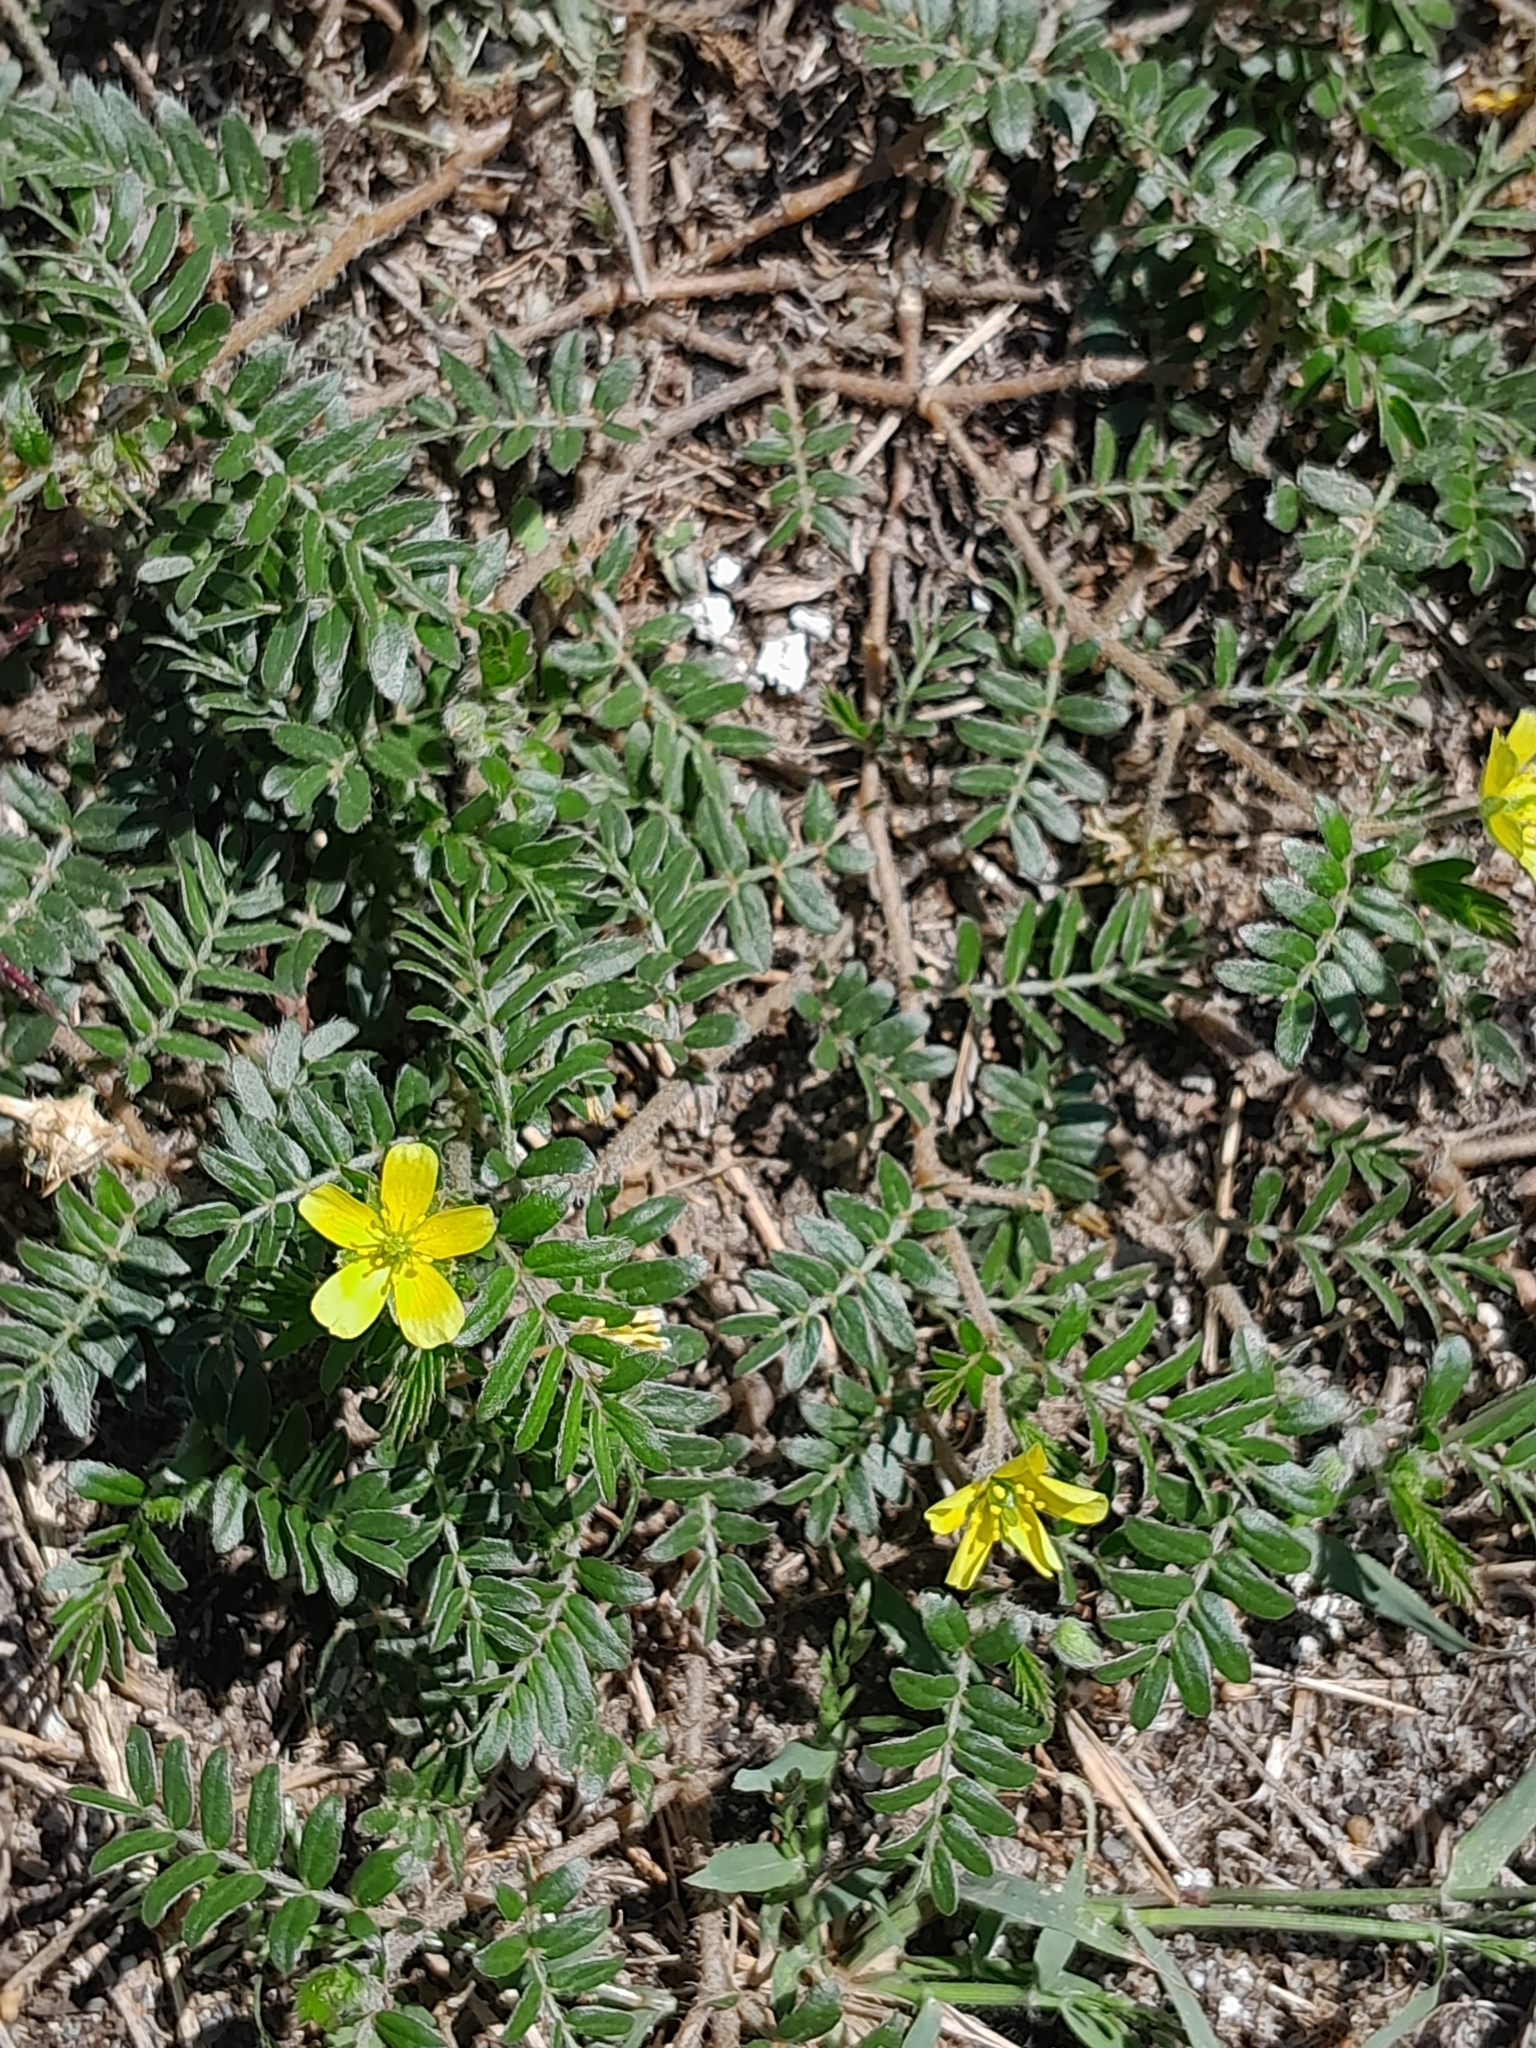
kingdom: Plantae
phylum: Tracheophyta
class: Magnoliopsida
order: Zygophyllales
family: Zygophyllaceae
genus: Tribulus
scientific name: Tribulus terrestris
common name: Puncturevine
